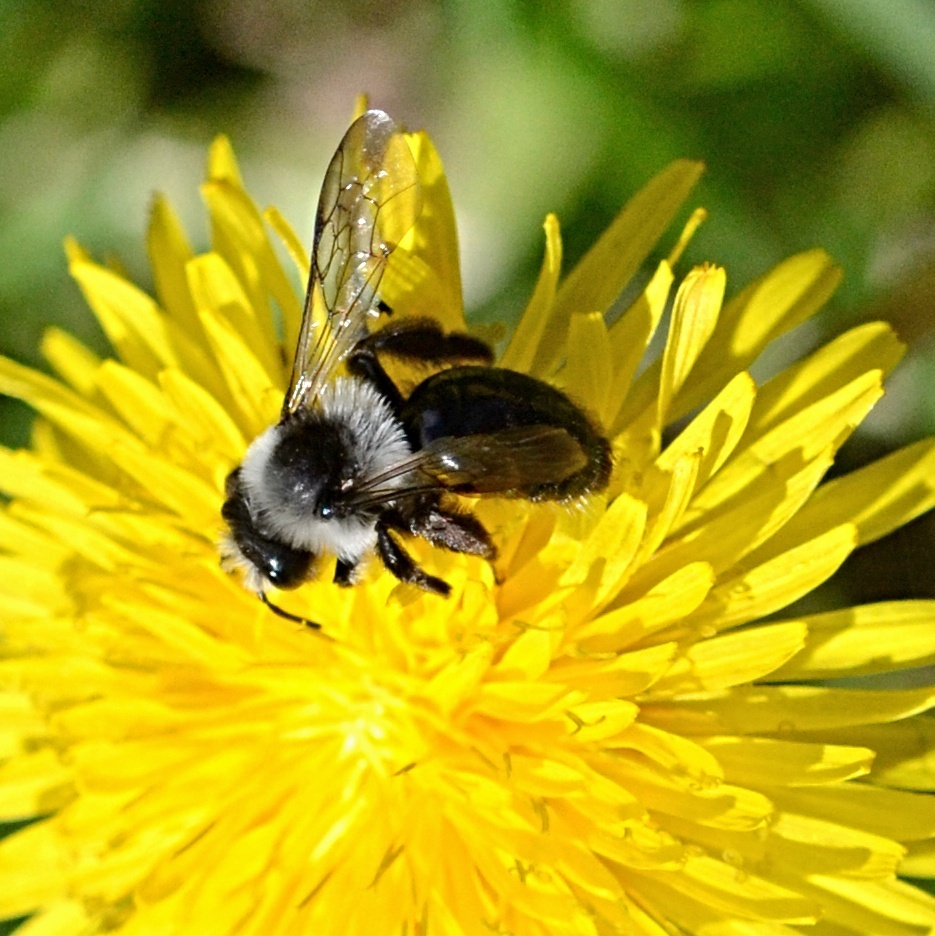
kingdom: Animalia
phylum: Arthropoda
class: Insecta
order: Hymenoptera
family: Andrenidae
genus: Andrena
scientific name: Andrena cineraria
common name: Ashy mining bee
